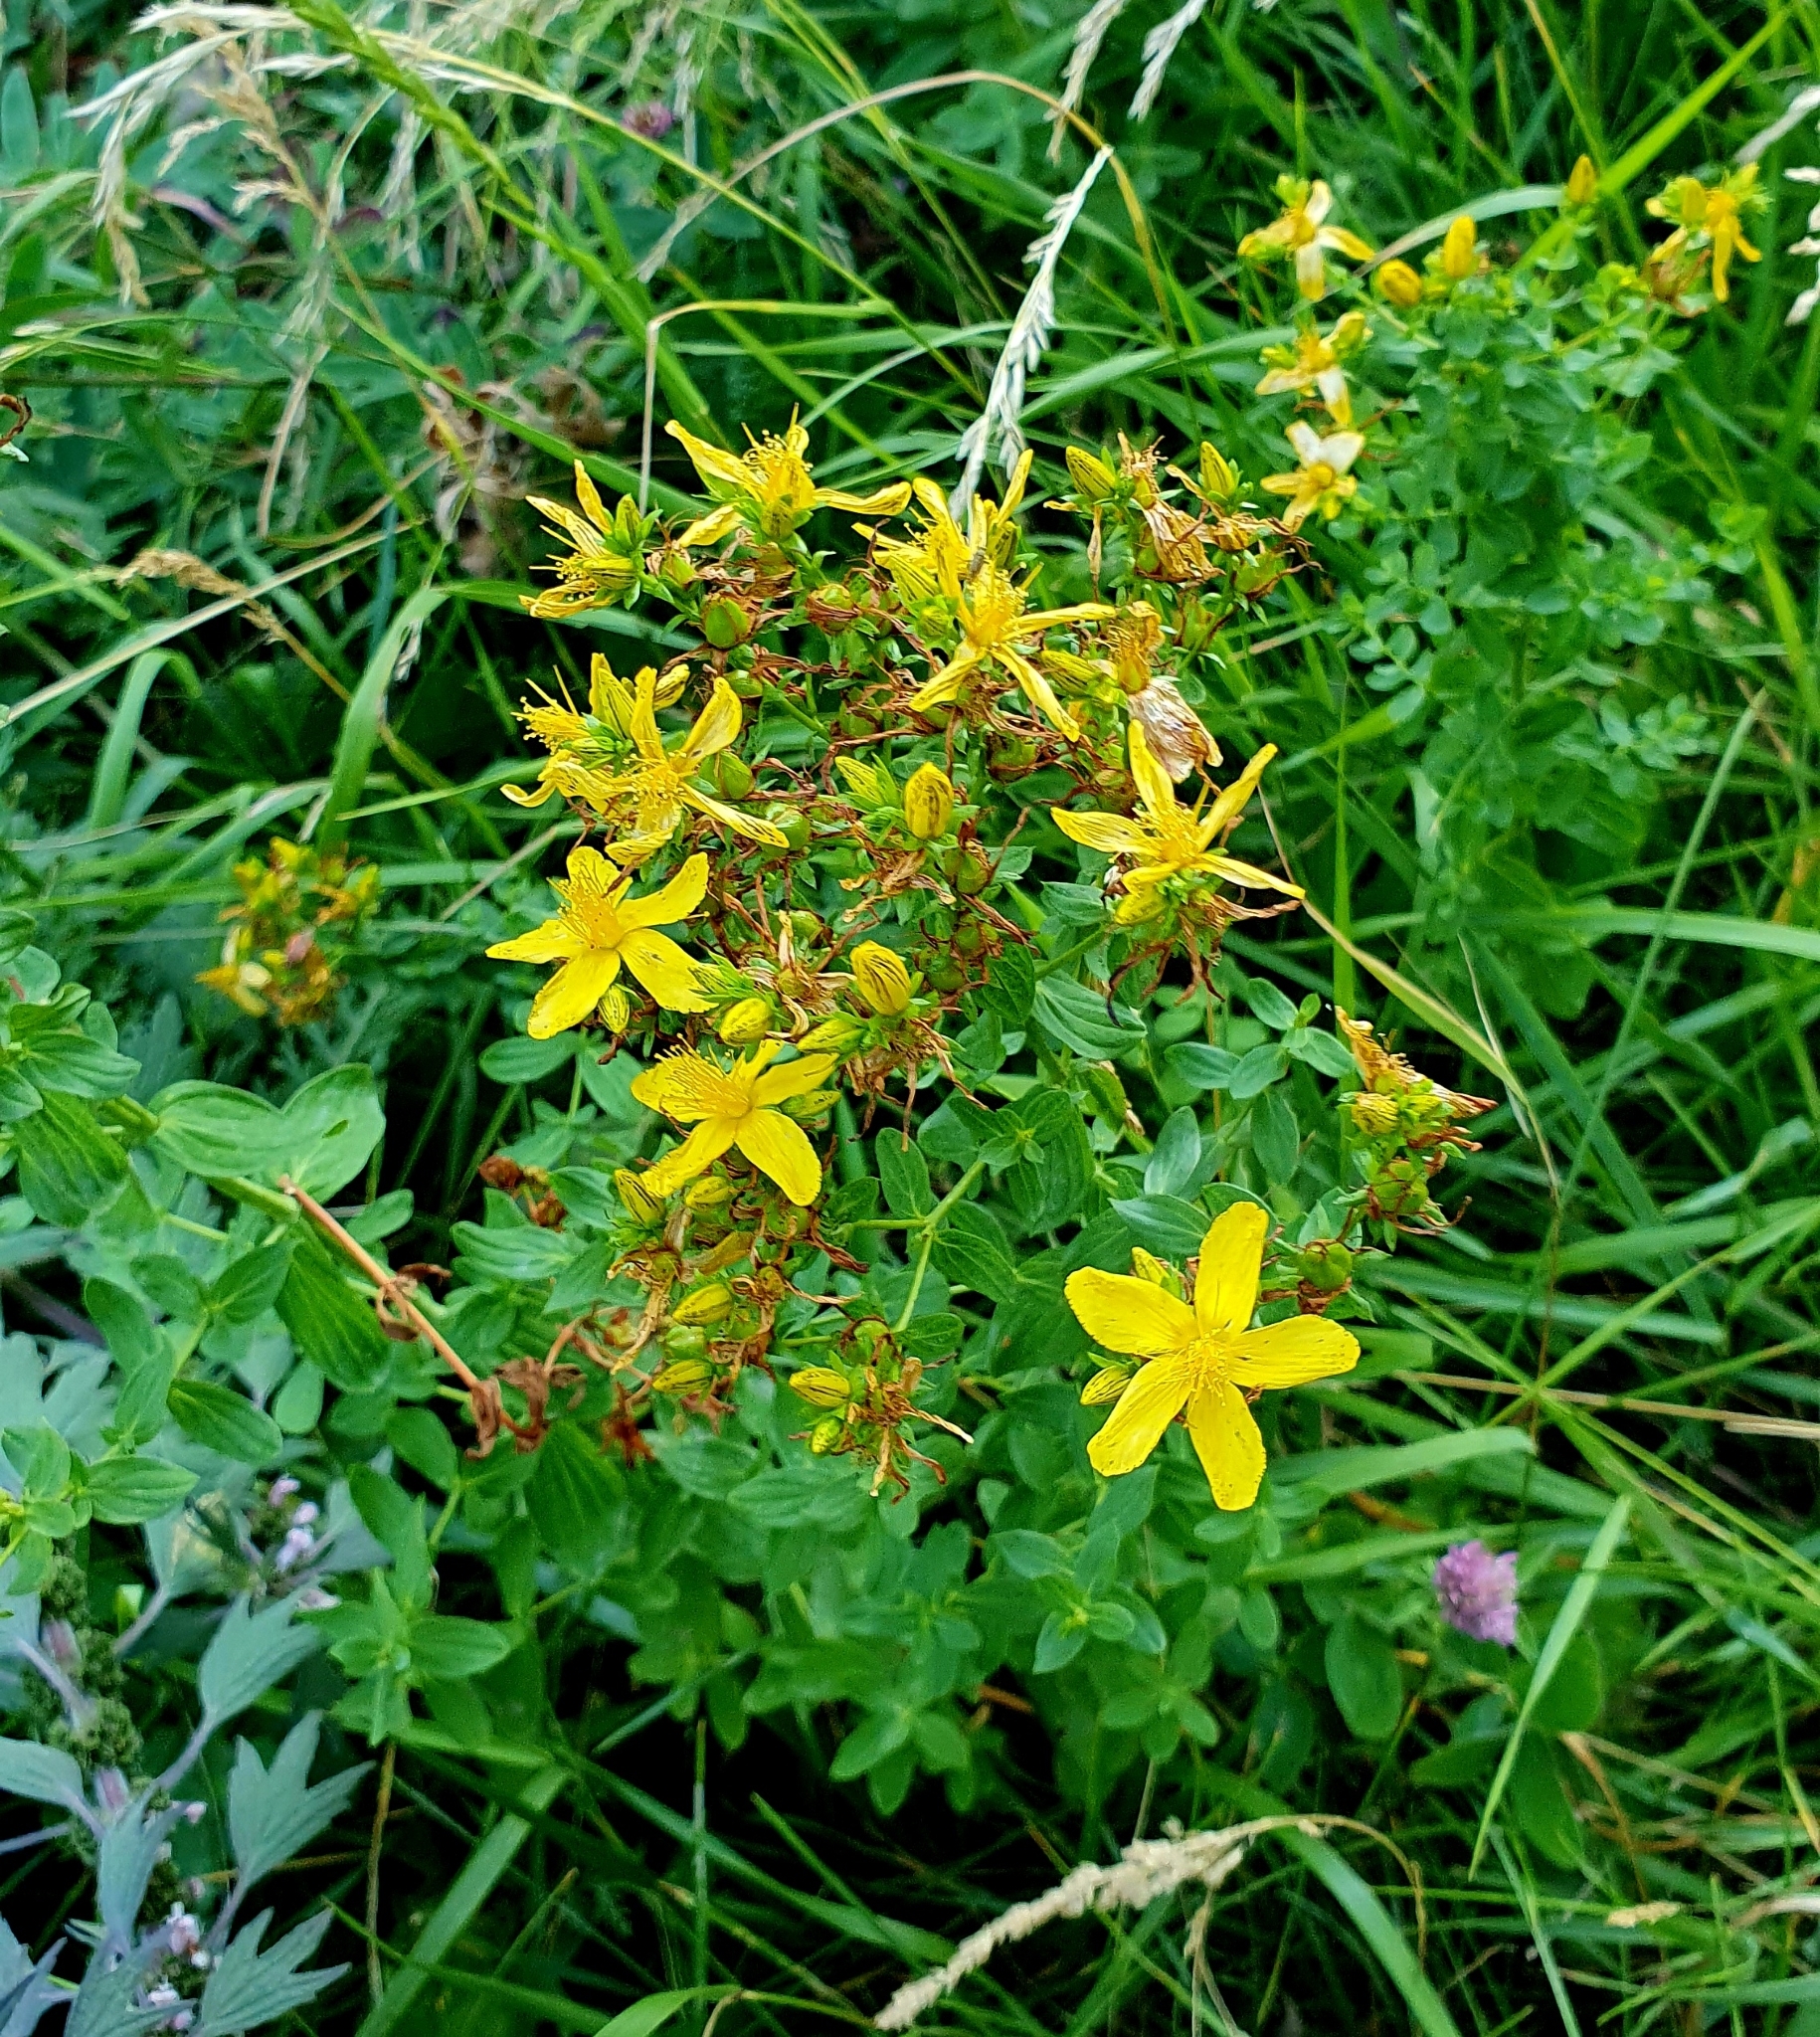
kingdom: Plantae
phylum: Tracheophyta
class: Magnoliopsida
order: Malpighiales
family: Hypericaceae
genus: Hypericum
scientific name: Hypericum perforatum
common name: Common st. johnswort
